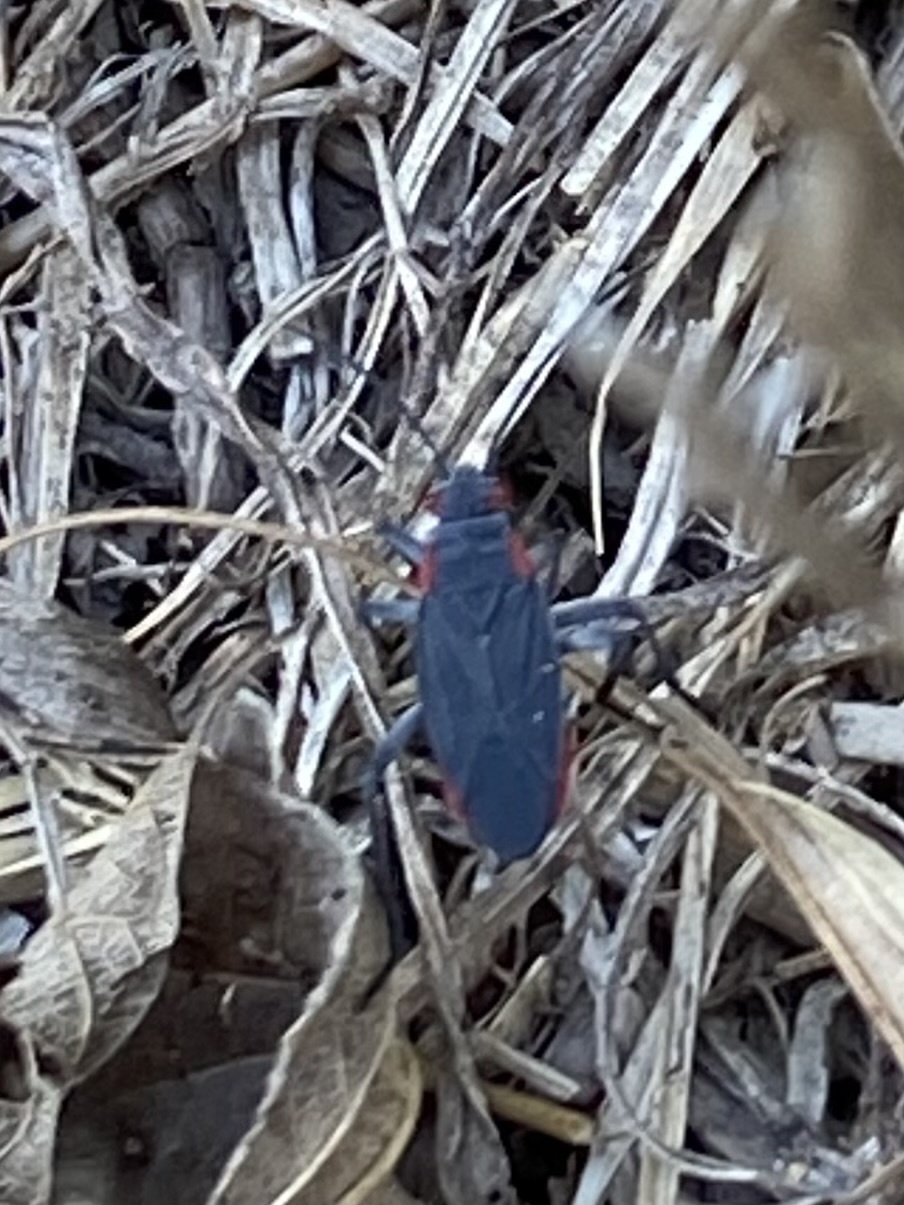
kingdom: Animalia
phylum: Arthropoda
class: Insecta
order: Hemiptera
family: Rhopalidae
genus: Jadera
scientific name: Jadera haematoloma
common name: Red-shouldered bug
